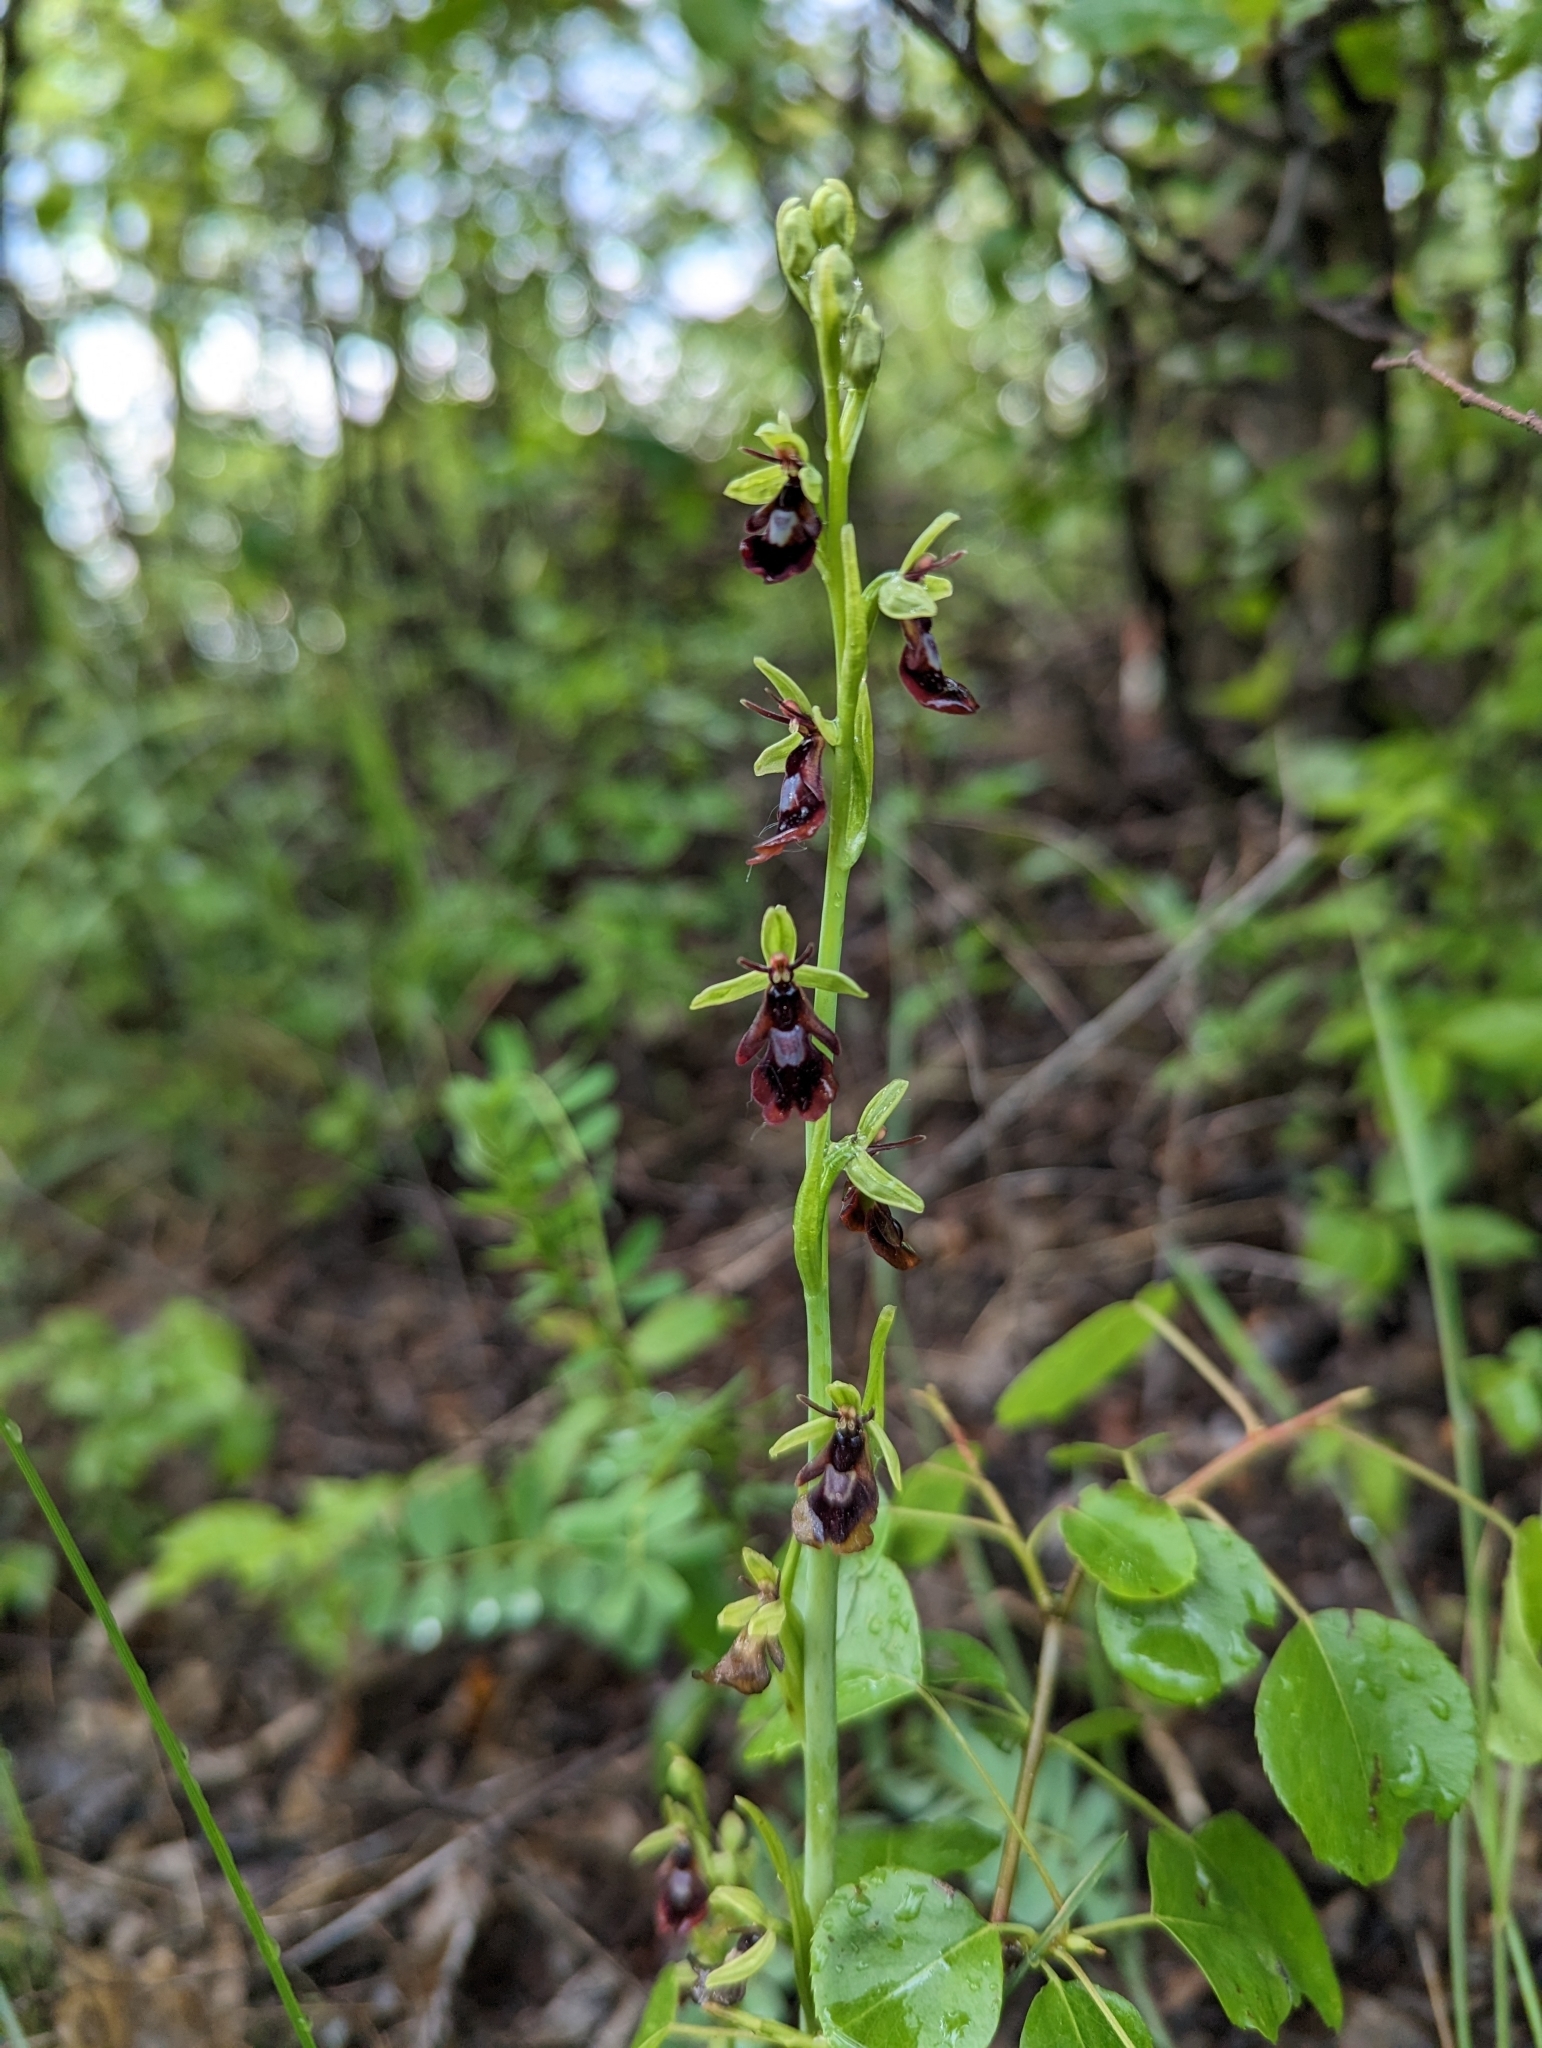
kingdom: Plantae
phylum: Tracheophyta
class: Liliopsida
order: Asparagales
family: Orchidaceae
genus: Ophrys
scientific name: Ophrys insectifera
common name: Fly orchid
